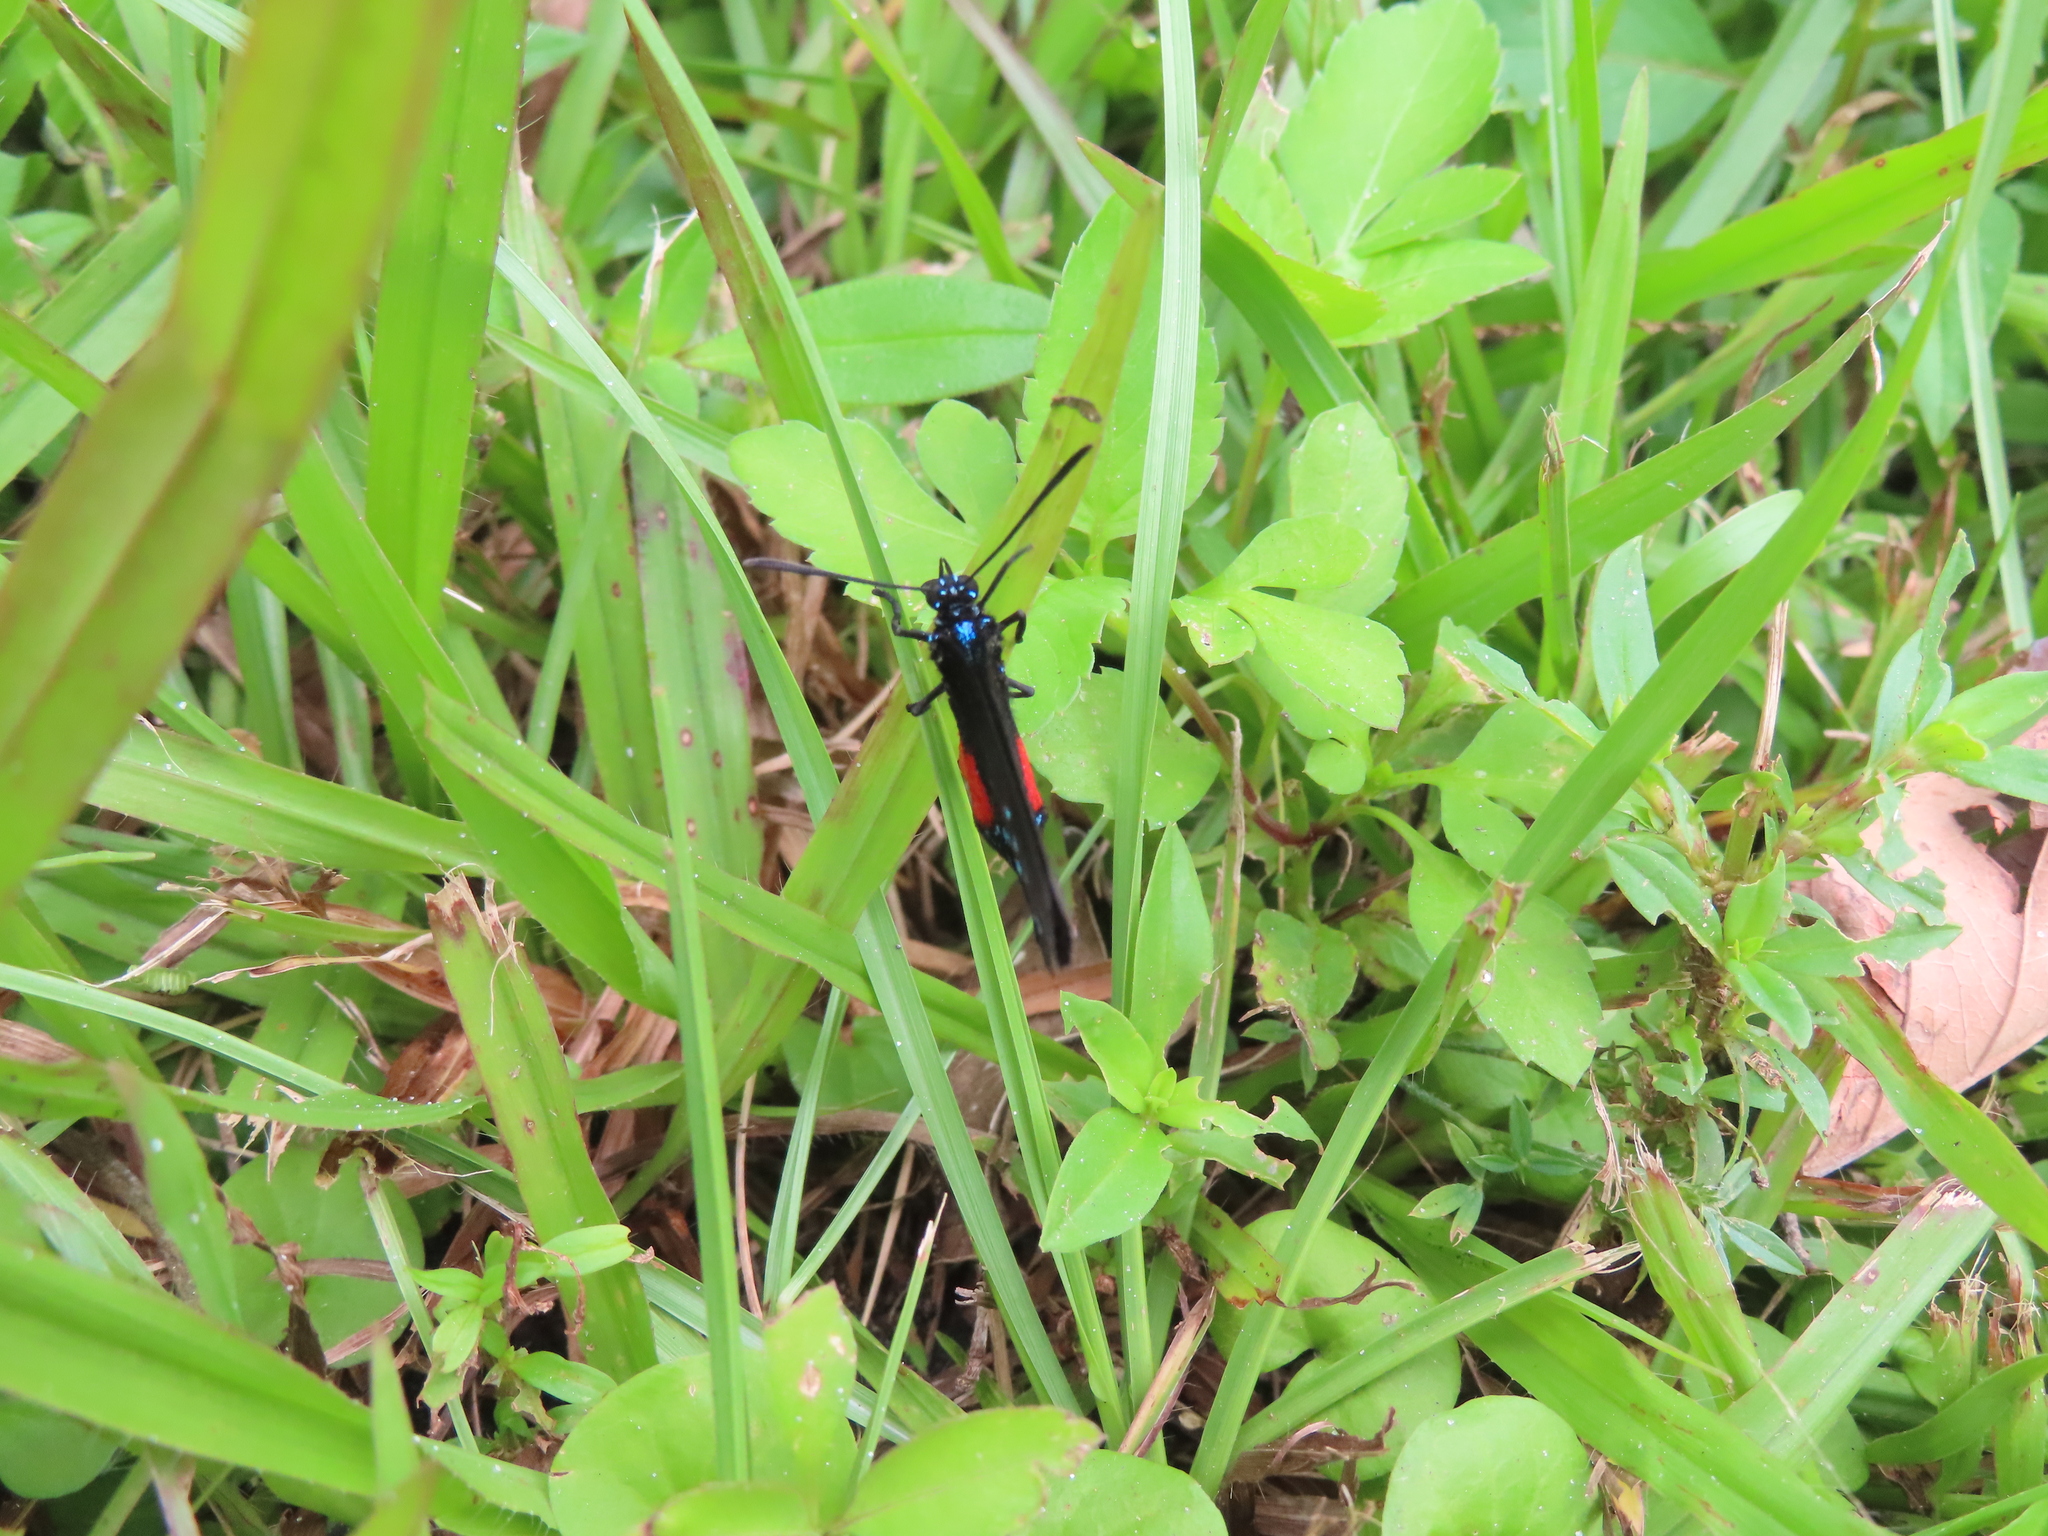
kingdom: Animalia
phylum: Arthropoda
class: Insecta
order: Lepidoptera
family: Lycaenidae
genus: Eumaeus
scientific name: Eumaeus atala
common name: Atala
